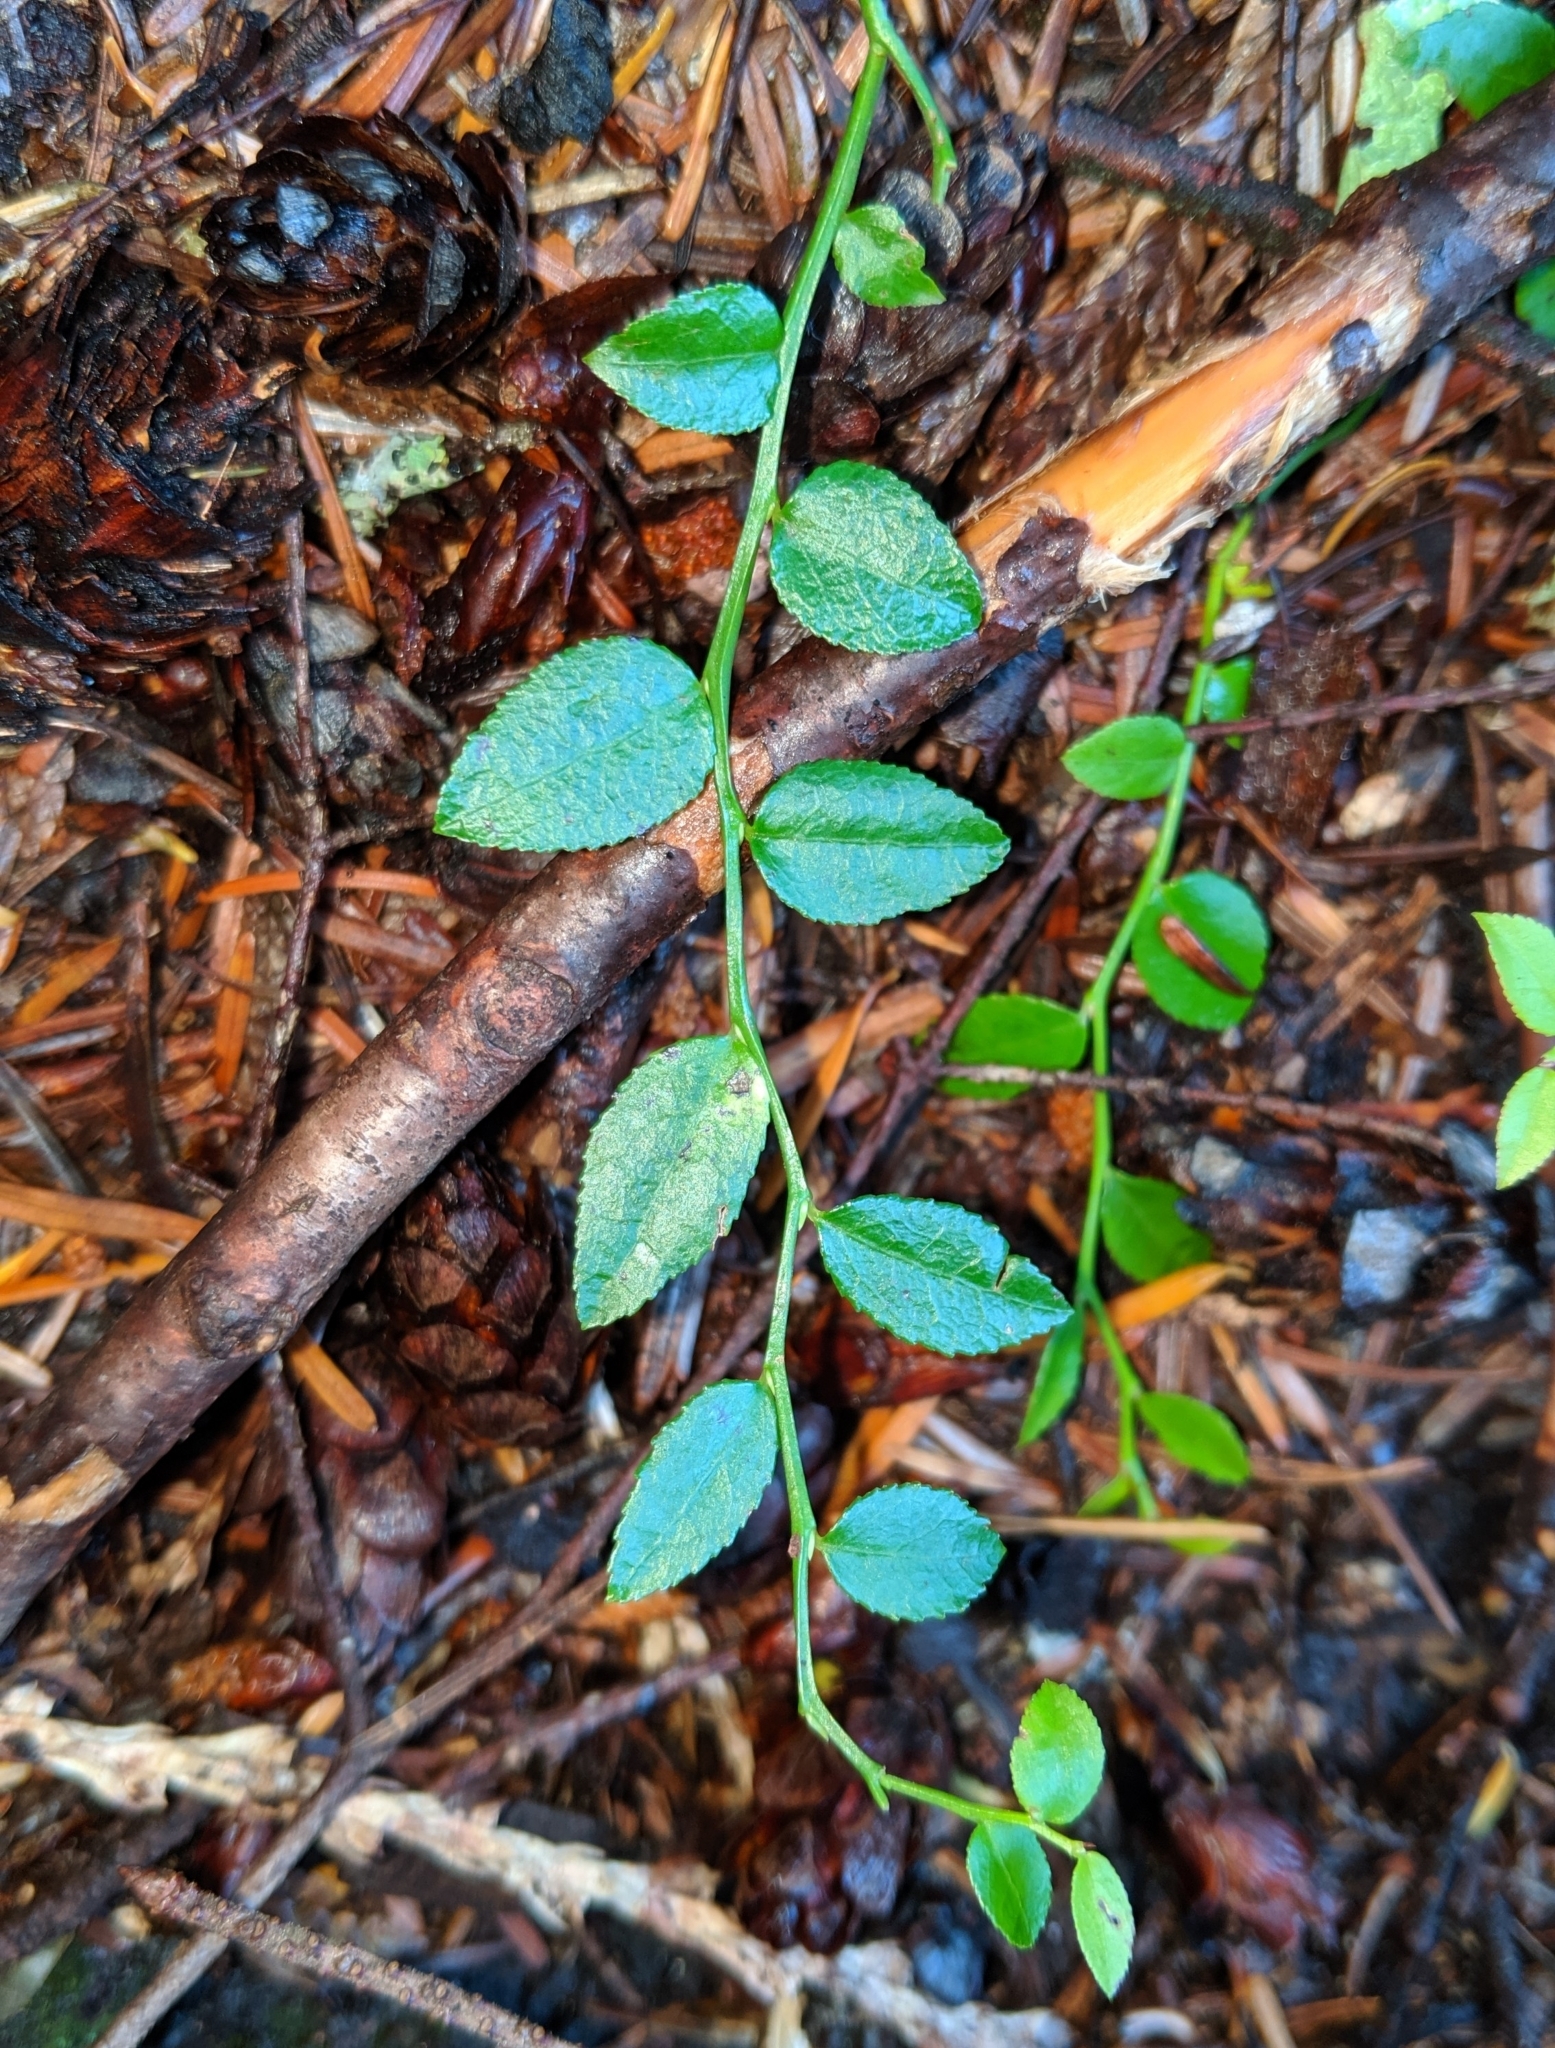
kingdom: Plantae
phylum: Tracheophyta
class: Magnoliopsida
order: Ericales
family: Ericaceae
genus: Vaccinium
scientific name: Vaccinium parvifolium
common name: Red-huckleberry
